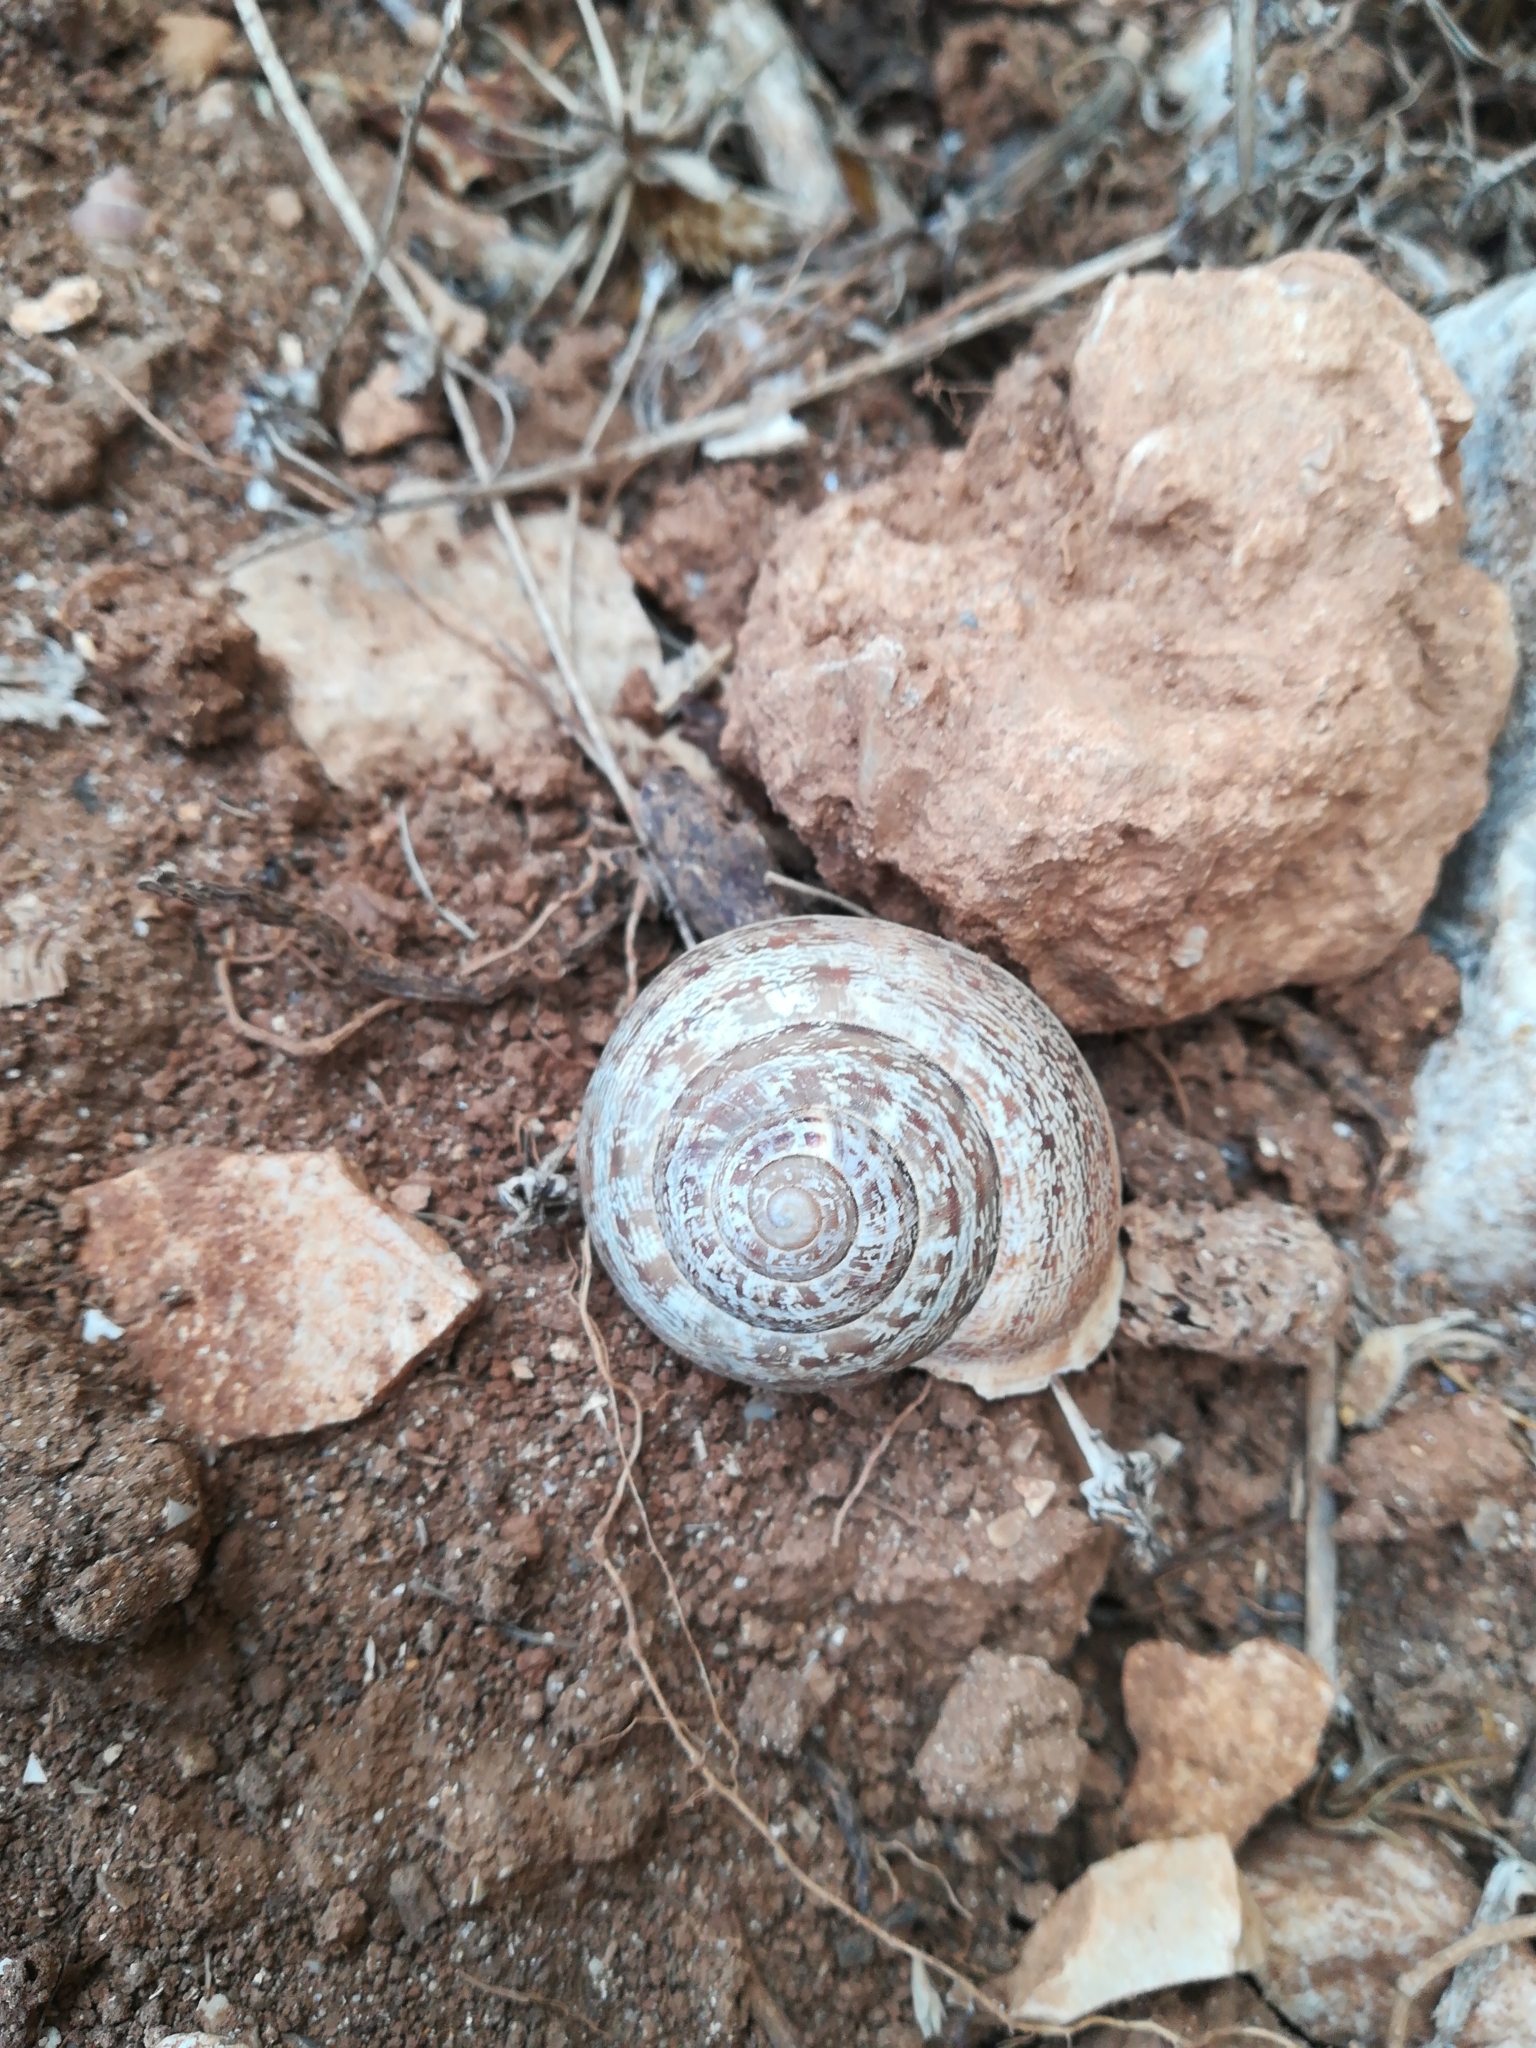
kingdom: Animalia
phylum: Mollusca
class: Gastropoda
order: Stylommatophora
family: Helicidae
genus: Eobania
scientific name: Eobania vermiculata
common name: Chocolateband snail
